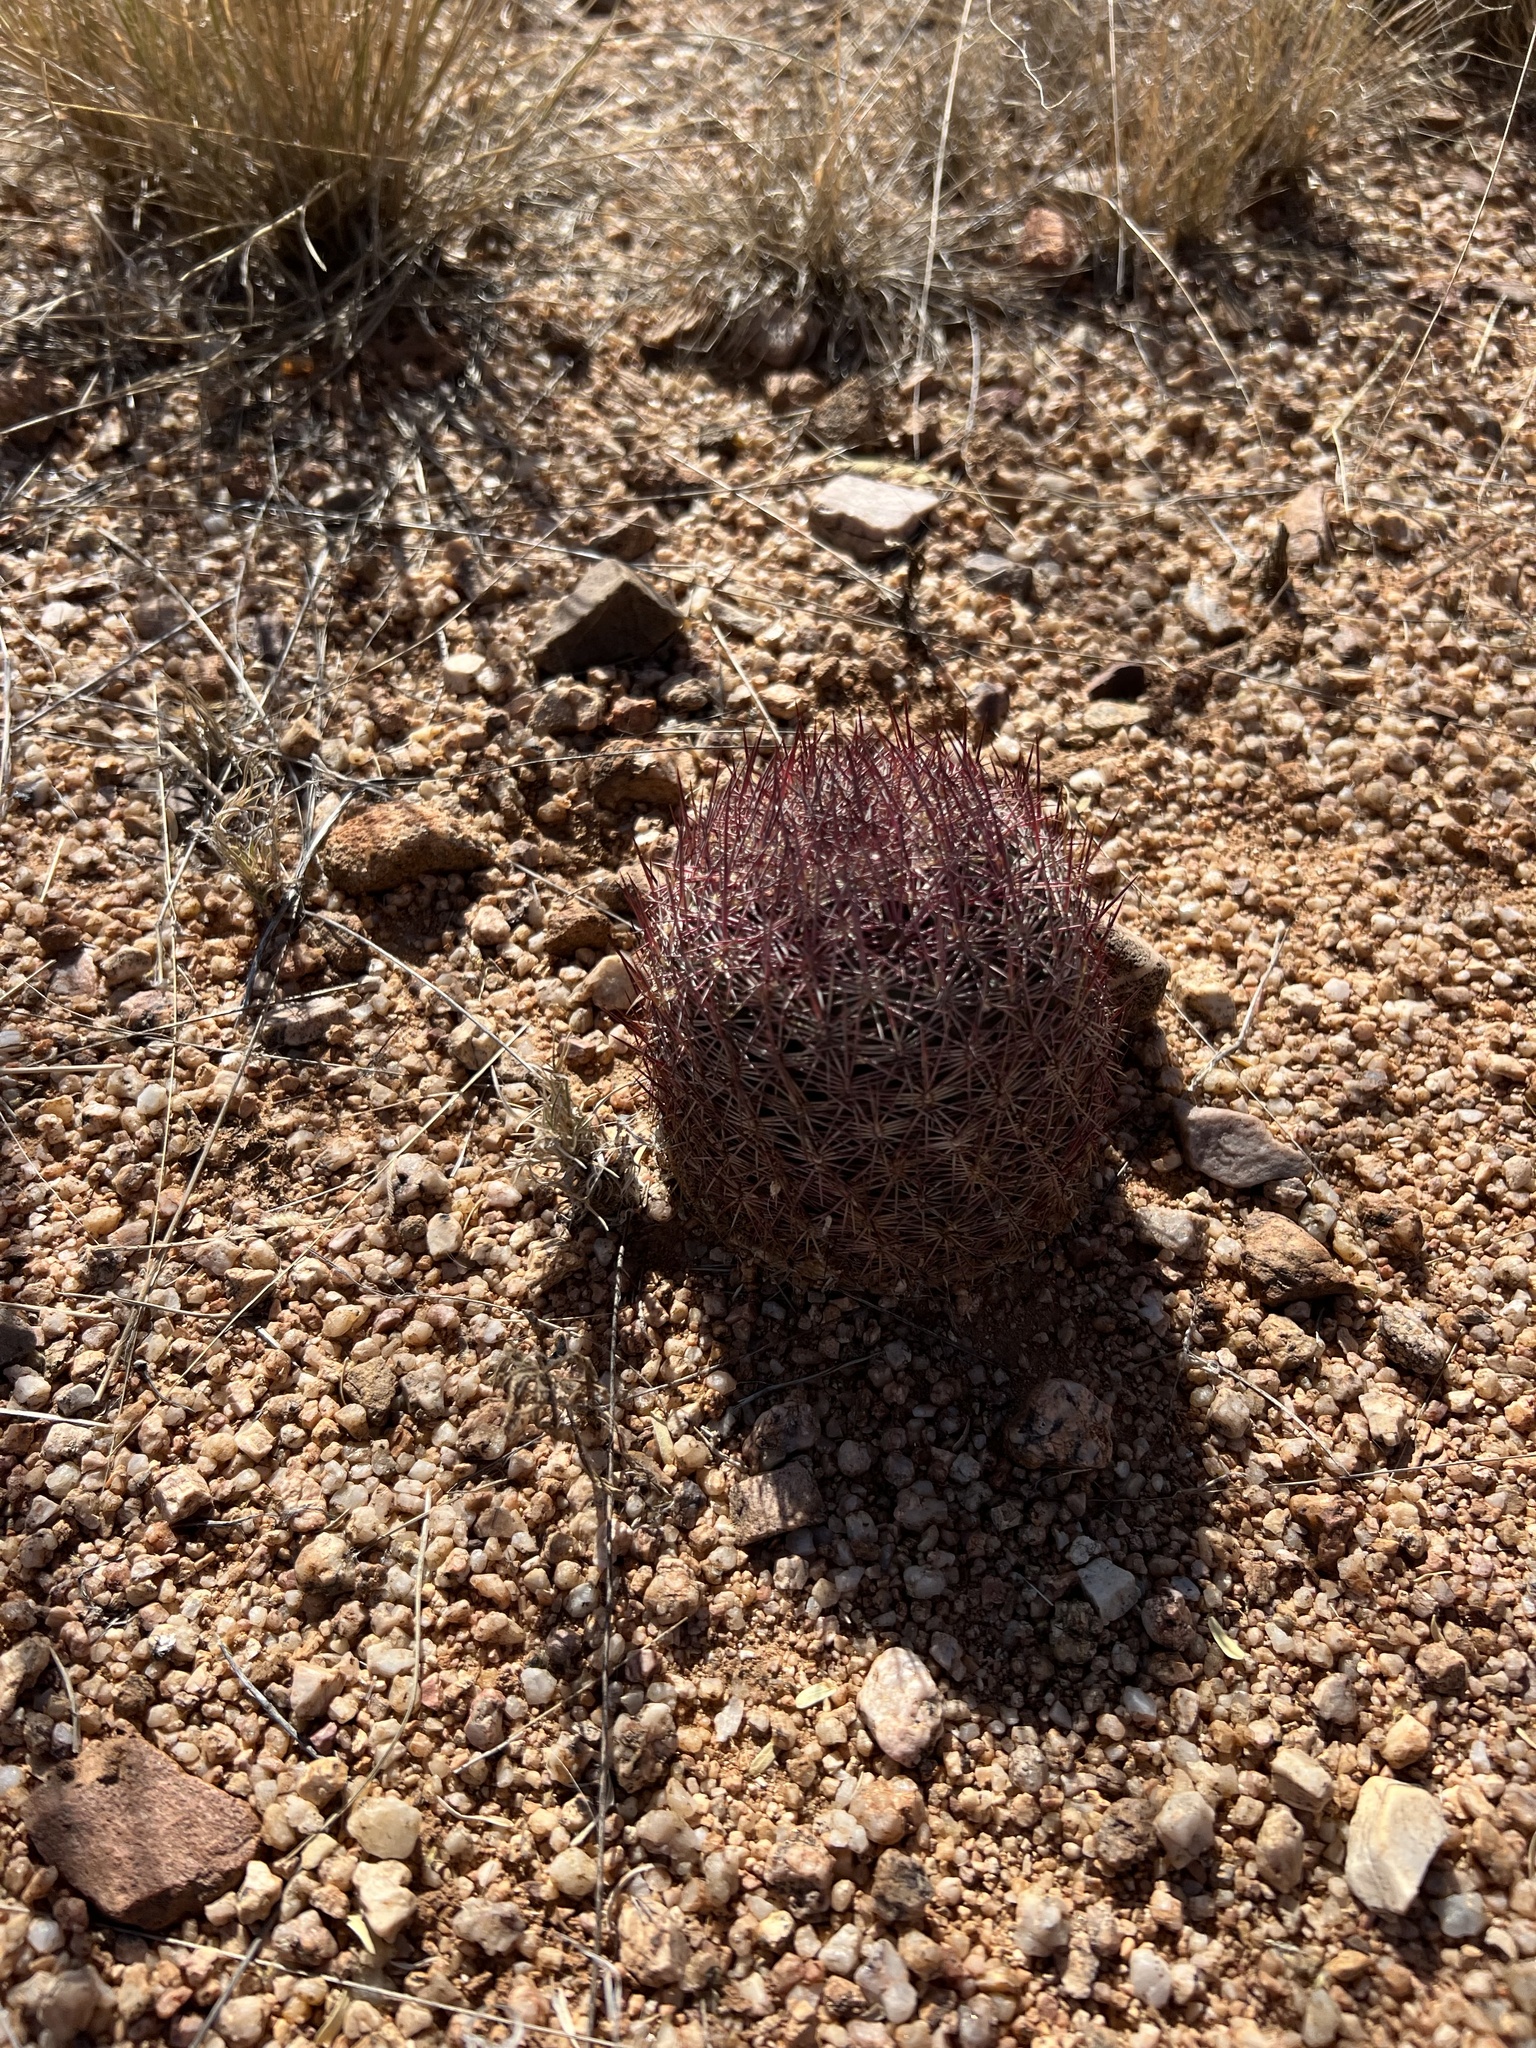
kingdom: Plantae
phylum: Tracheophyta
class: Magnoliopsida
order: Caryophyllales
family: Cactaceae
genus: Sclerocactus
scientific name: Sclerocactus johnsonii
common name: Eight-spine fishhook cactus
